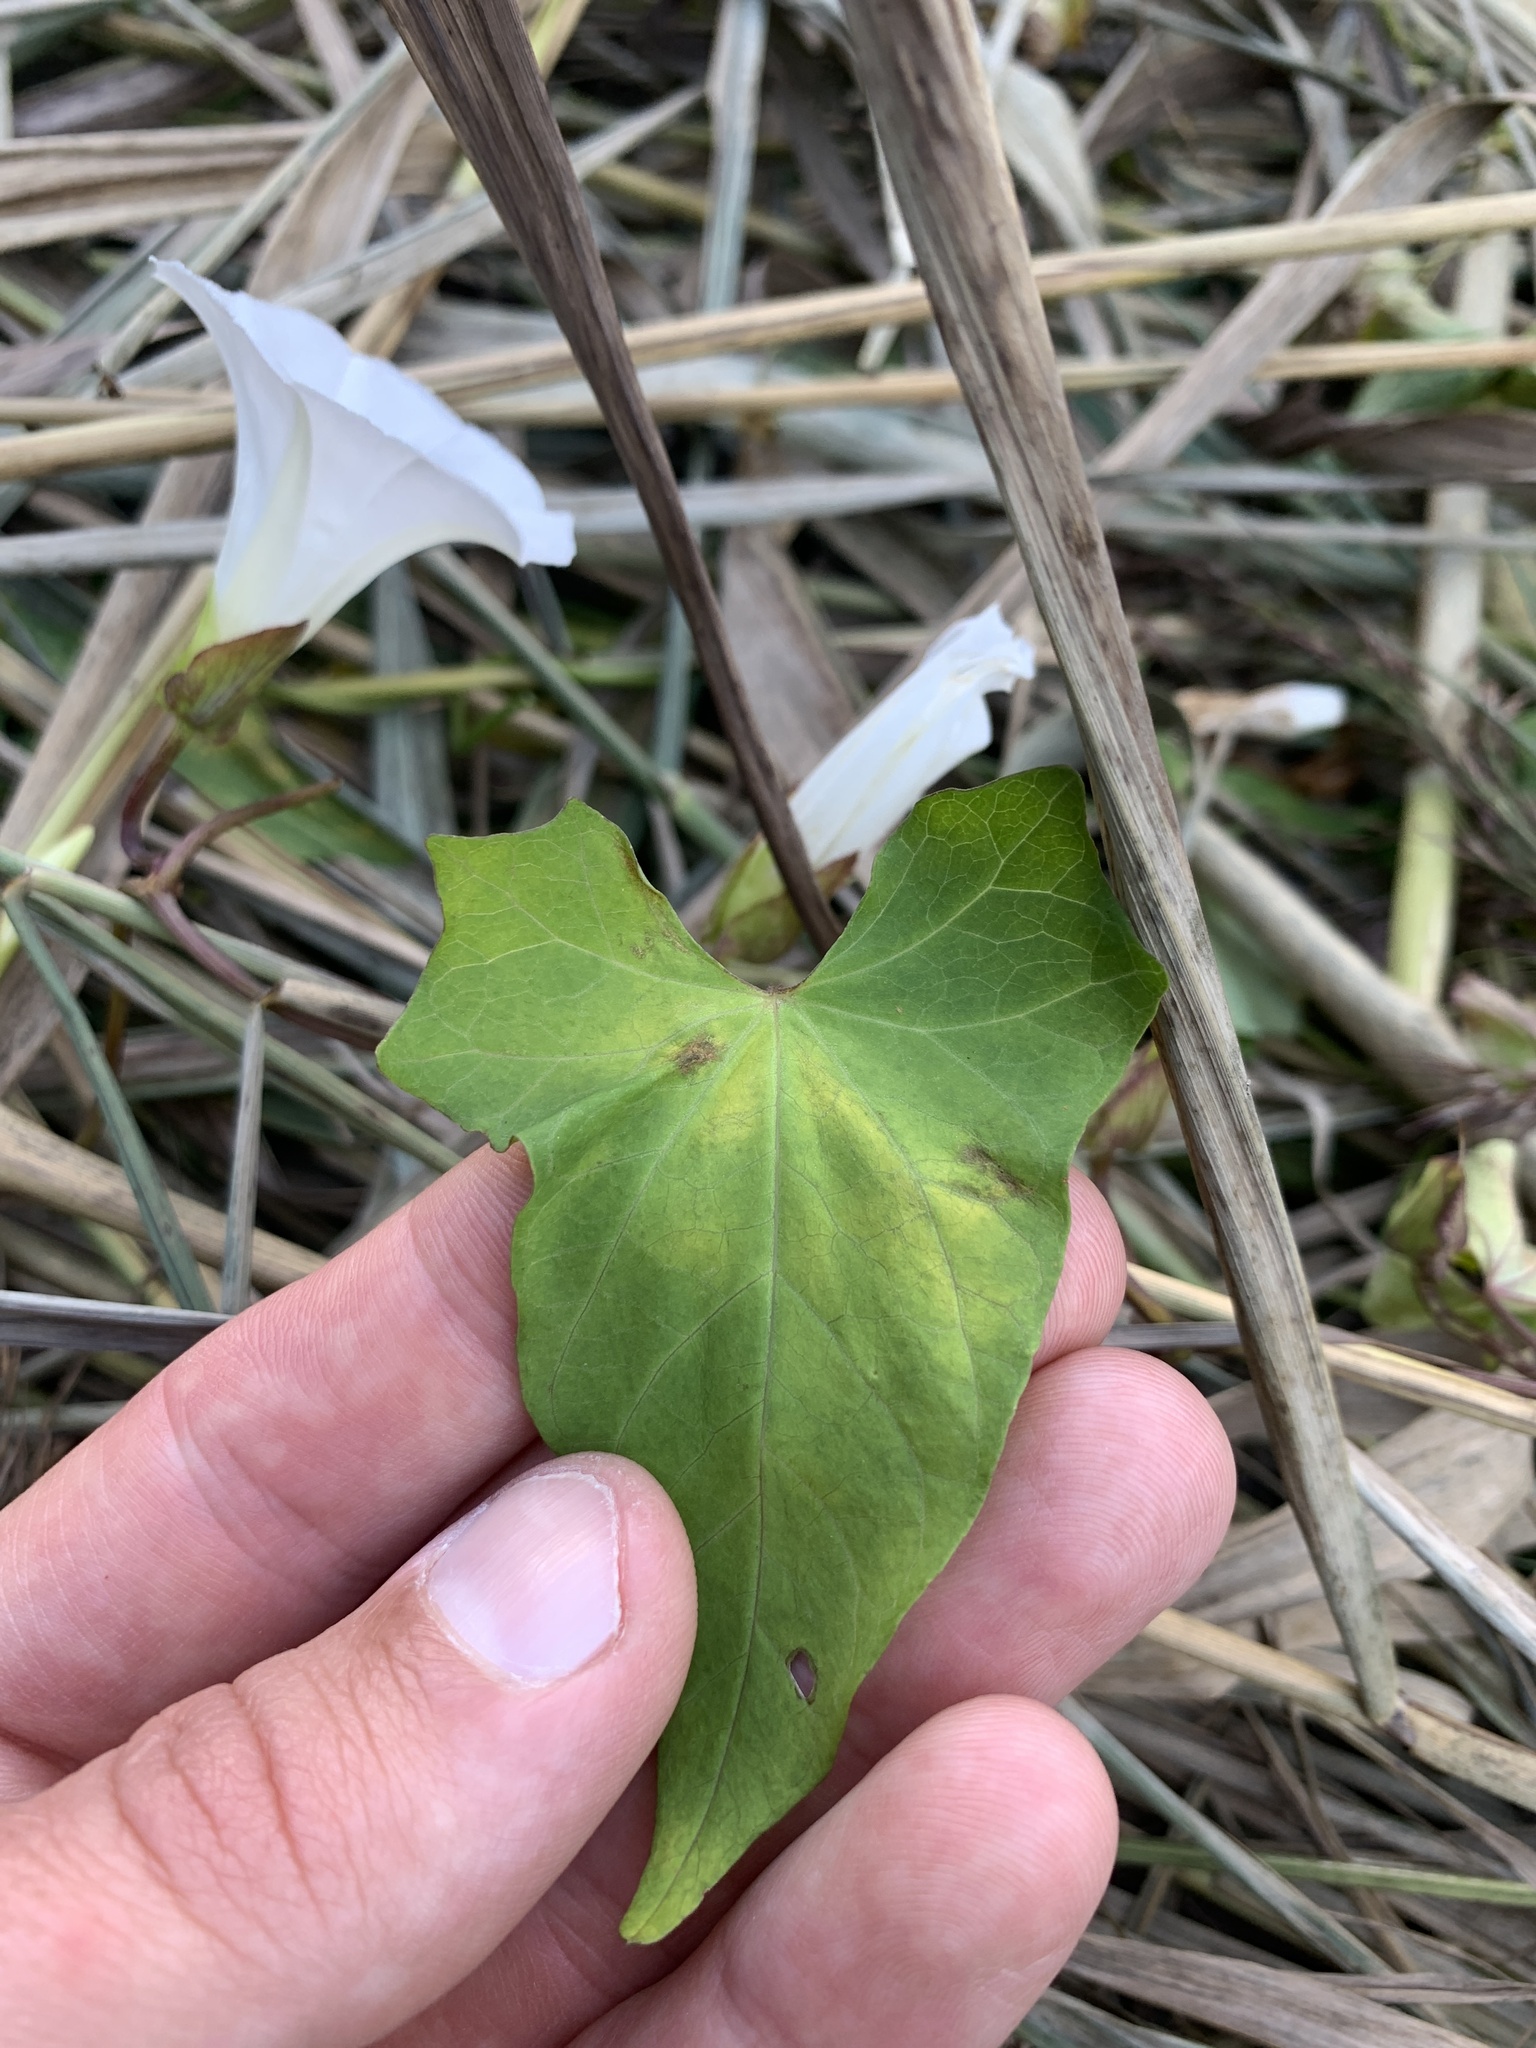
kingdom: Plantae
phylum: Tracheophyta
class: Magnoliopsida
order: Solanales
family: Convolvulaceae
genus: Calystegia
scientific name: Calystegia sepium
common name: Hedge bindweed
